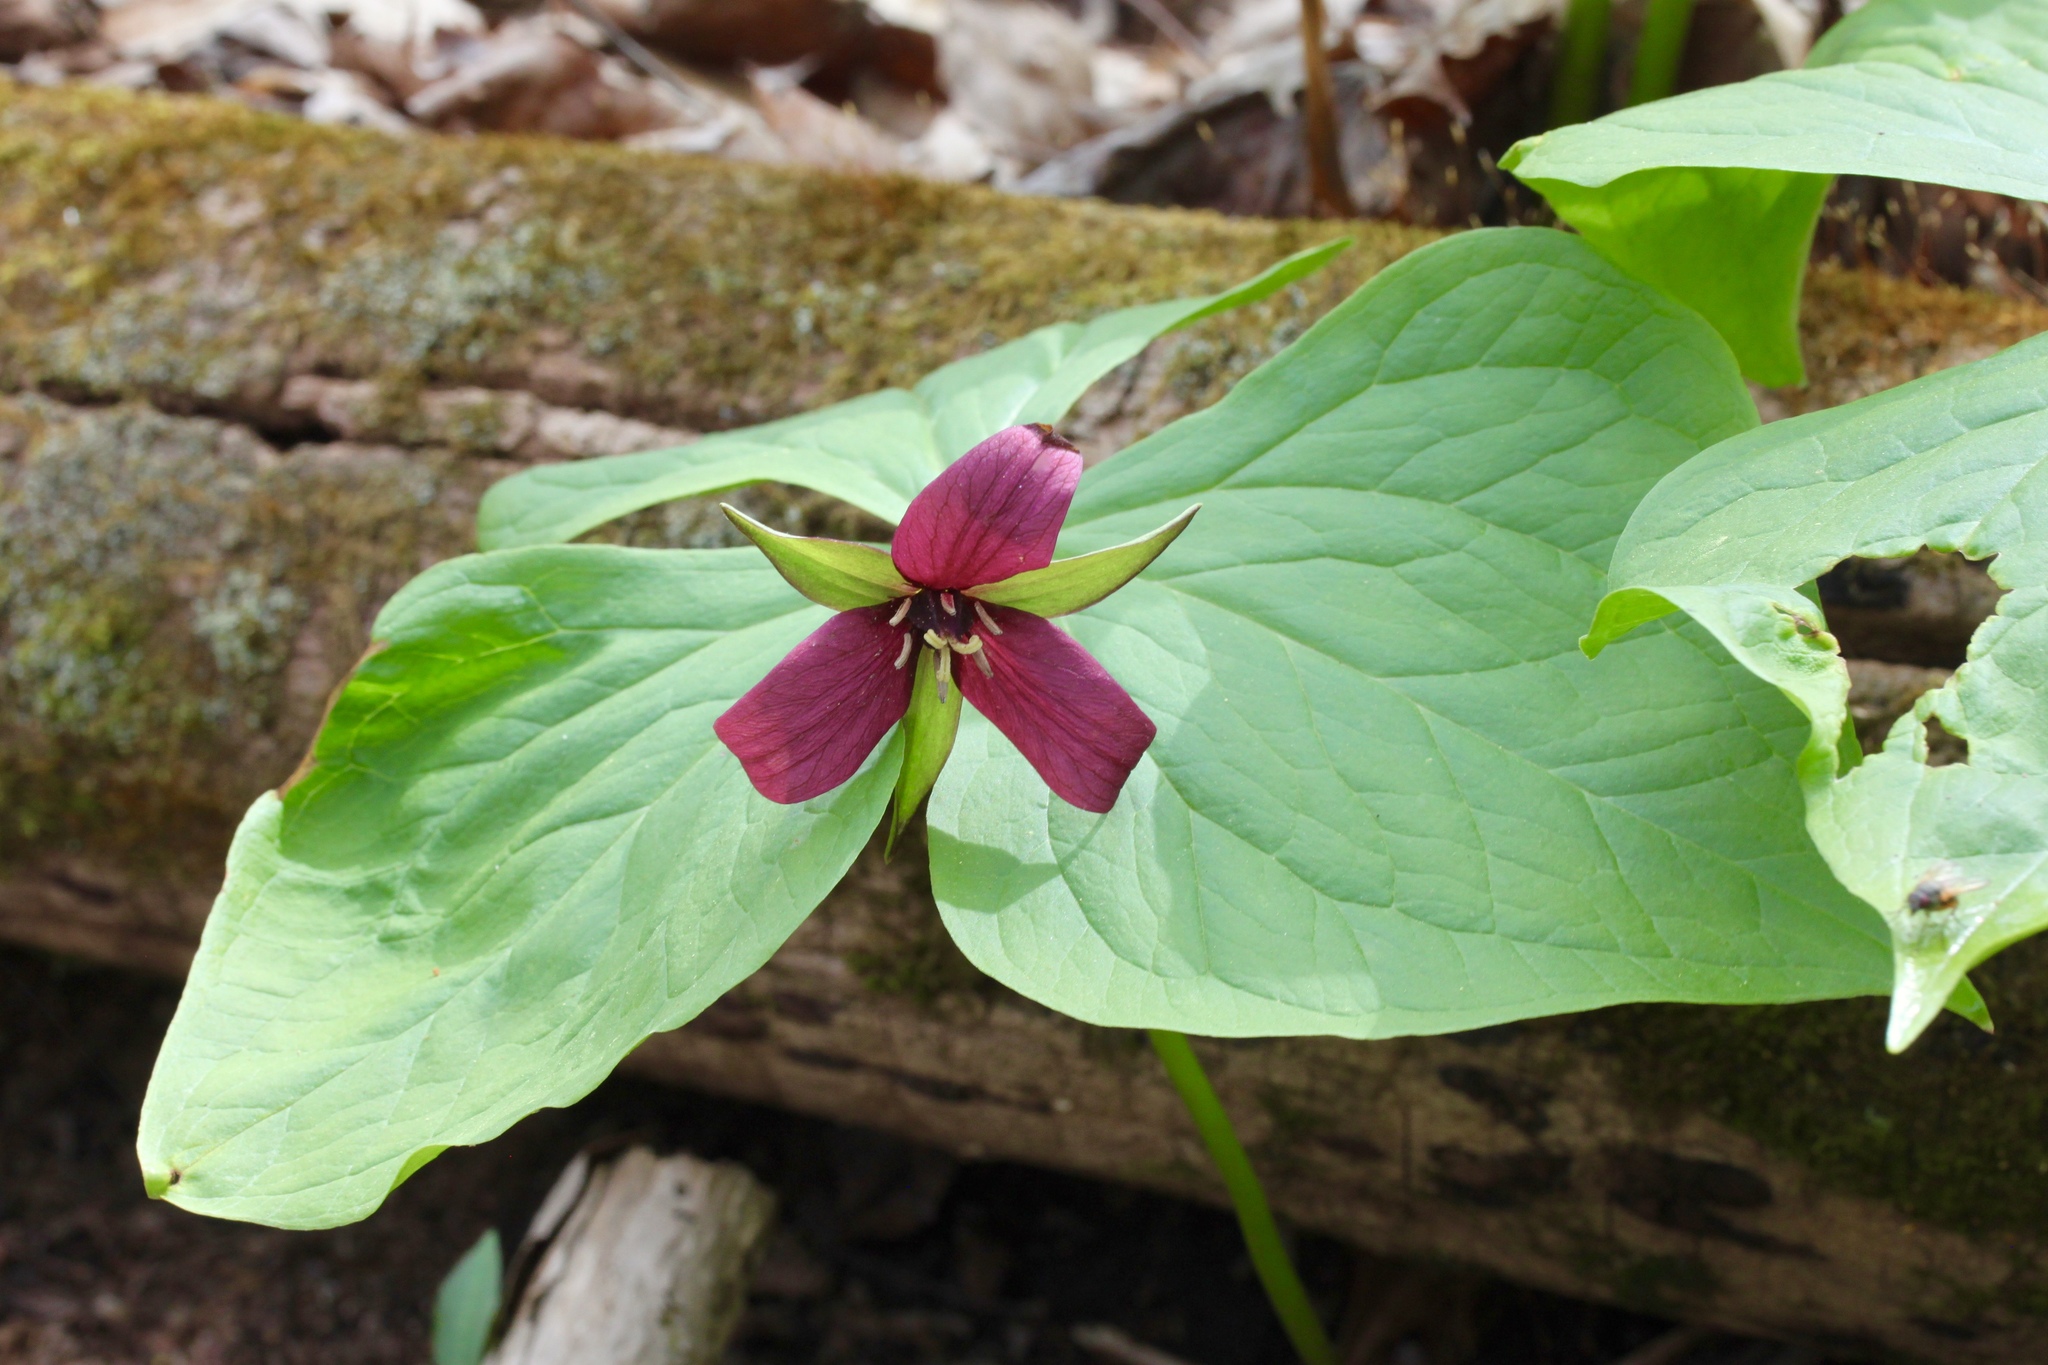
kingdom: Plantae
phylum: Tracheophyta
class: Liliopsida
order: Liliales
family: Melanthiaceae
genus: Trillium
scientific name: Trillium erectum
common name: Purple trillium
